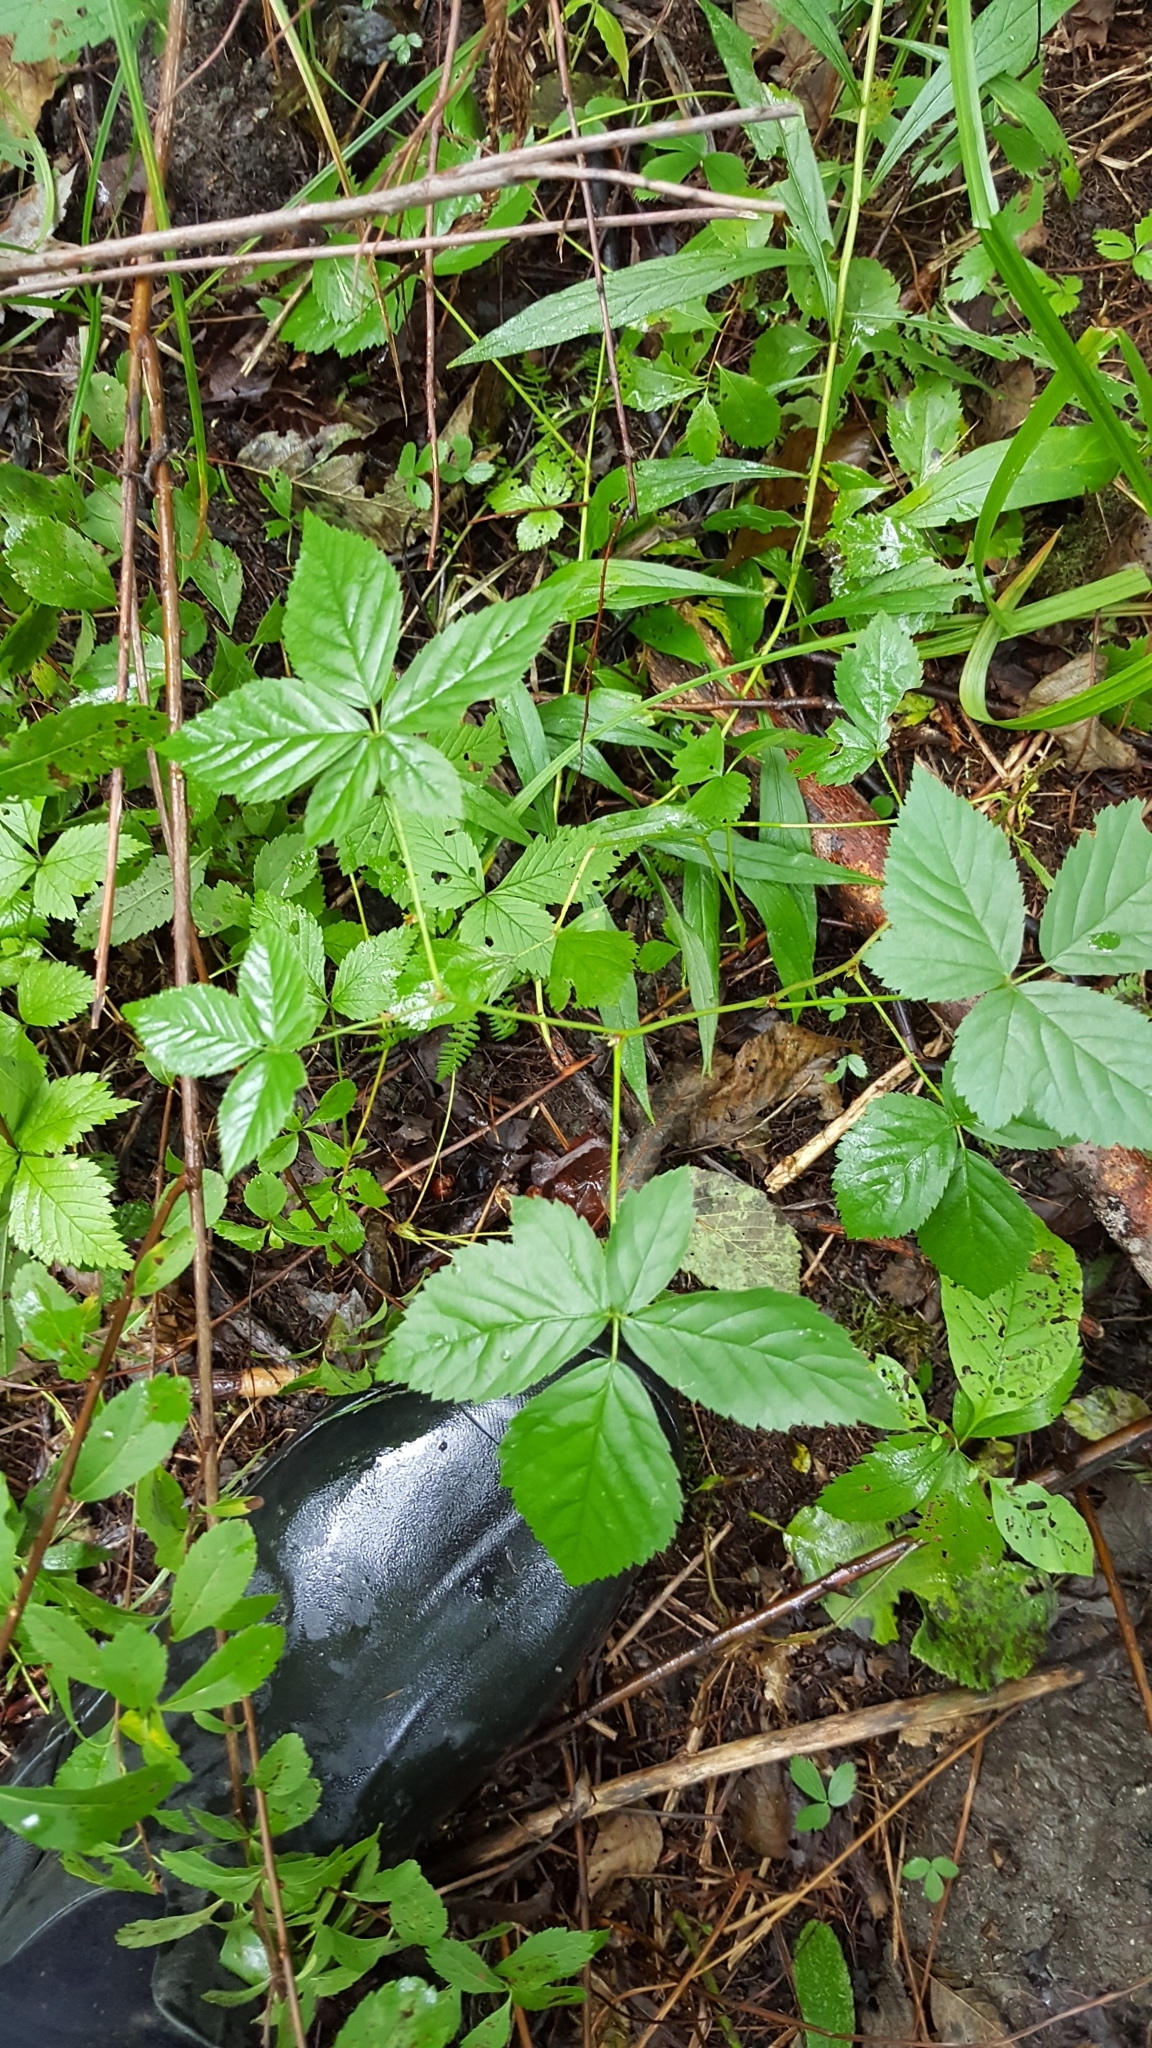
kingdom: Plantae
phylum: Tracheophyta
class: Magnoliopsida
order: Rosales
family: Rosaceae
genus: Rubus
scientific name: Rubus hispidus
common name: Running blackberry
